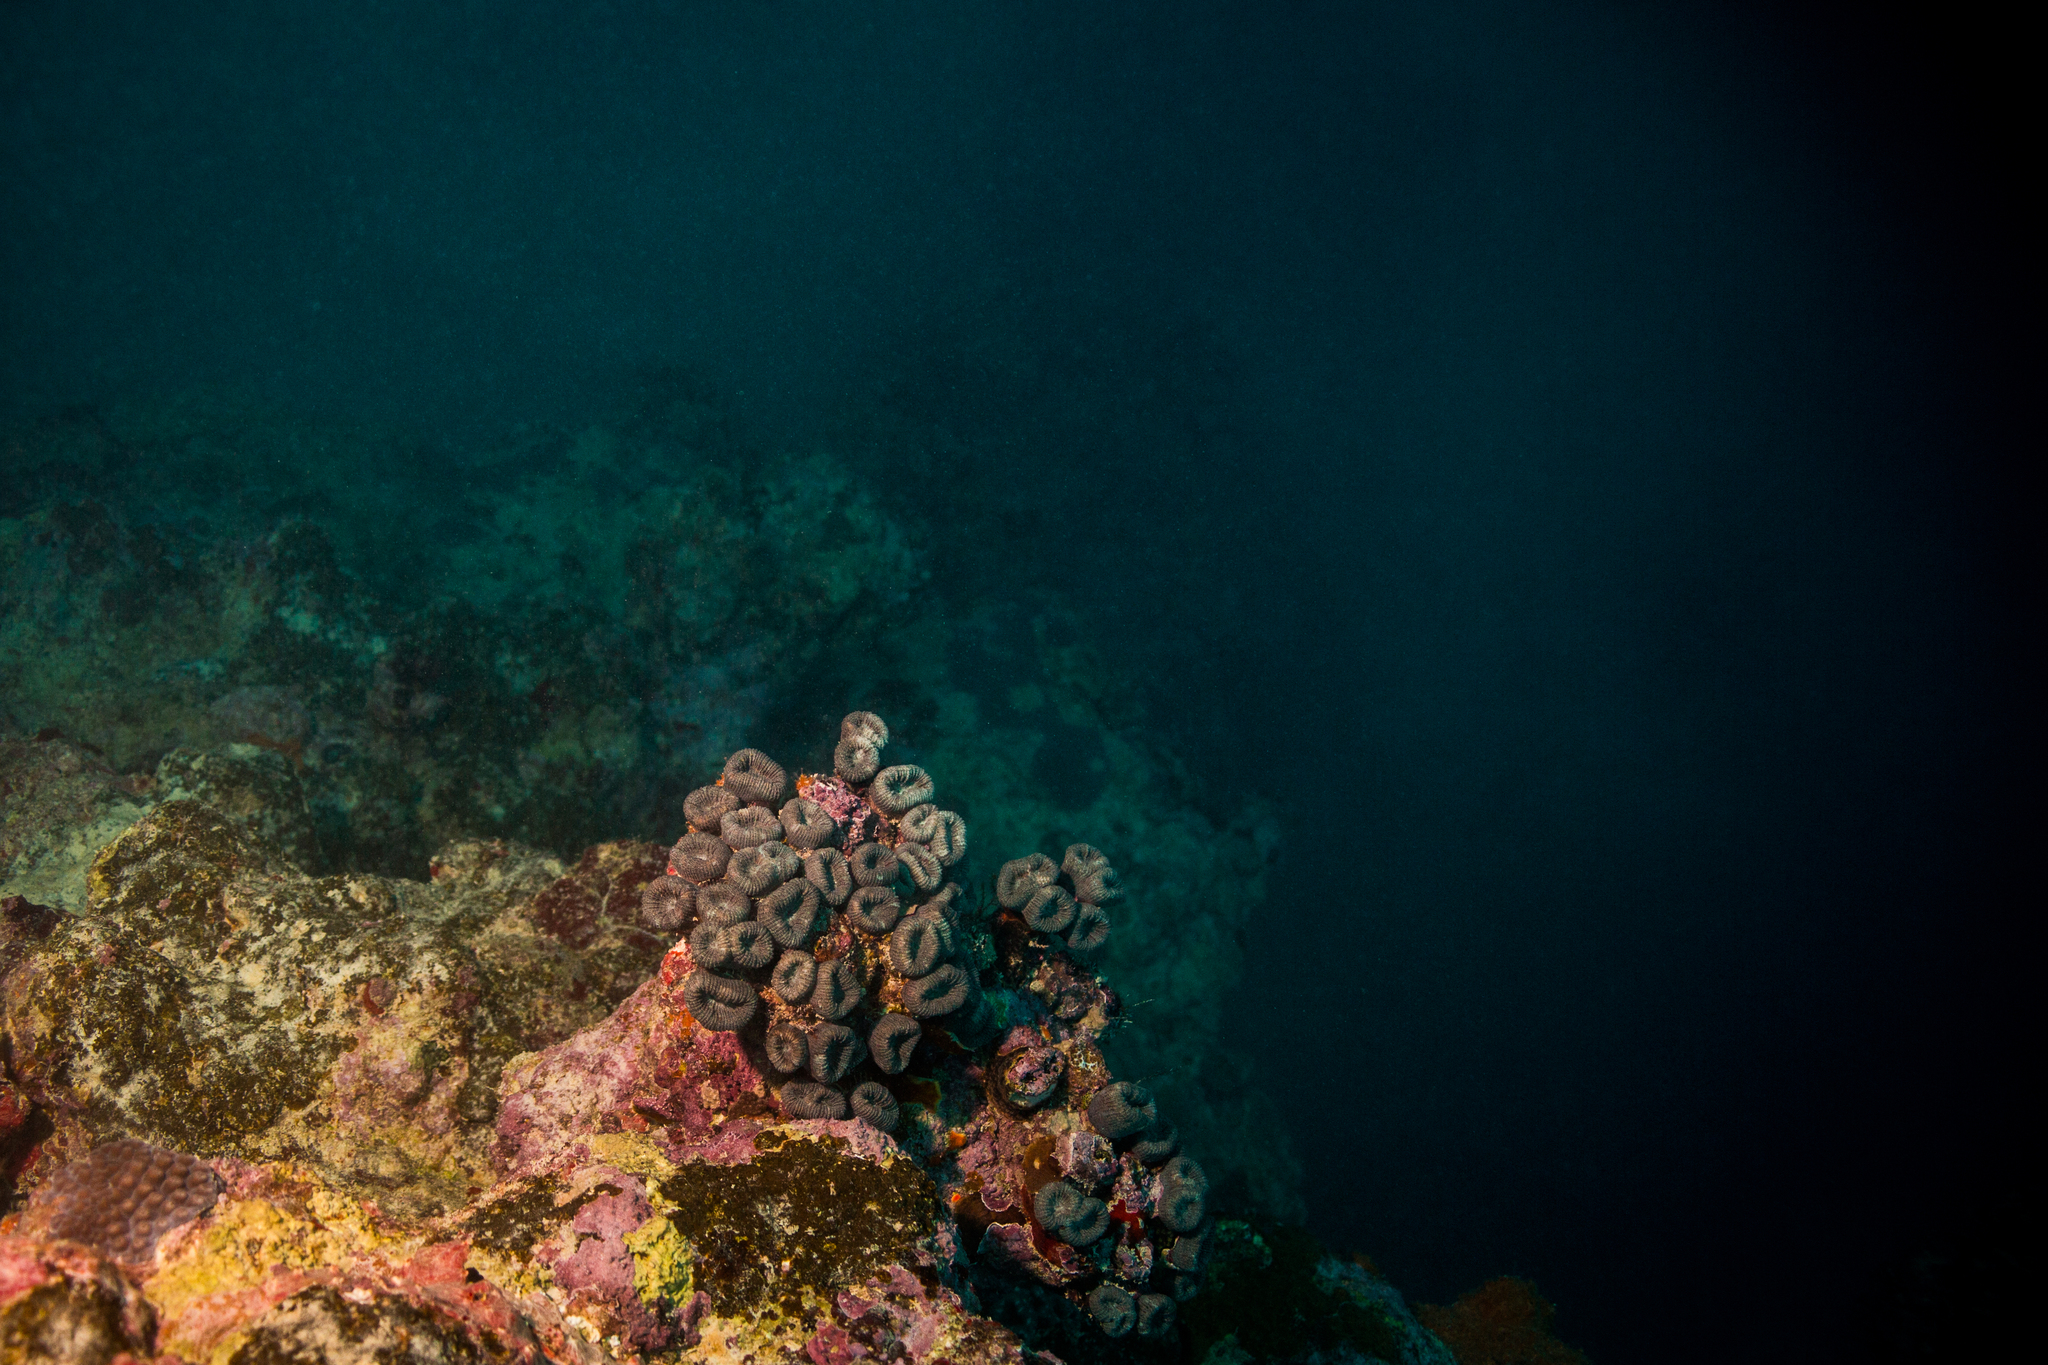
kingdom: Animalia
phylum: Cnidaria
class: Anthozoa
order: Scleractinia
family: Faviidae
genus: Mussismilia
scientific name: Mussismilia harttii
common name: Brain coral
